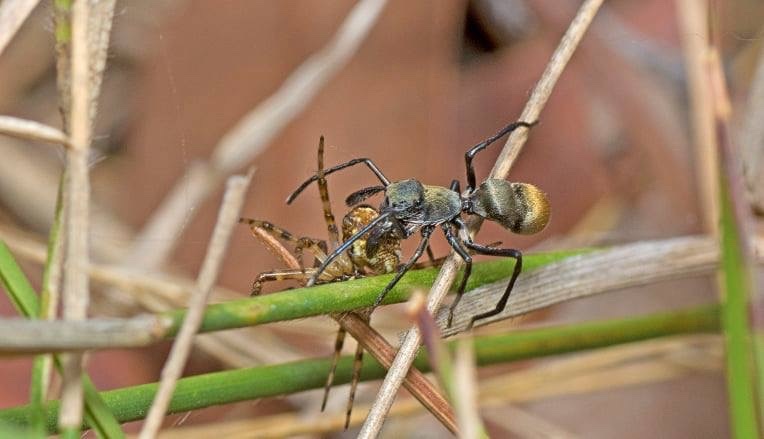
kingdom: Animalia
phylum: Arthropoda
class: Arachnida
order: Araneae
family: Salticidae
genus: Myrmarachne
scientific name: Myrmarachne erythrocephala
